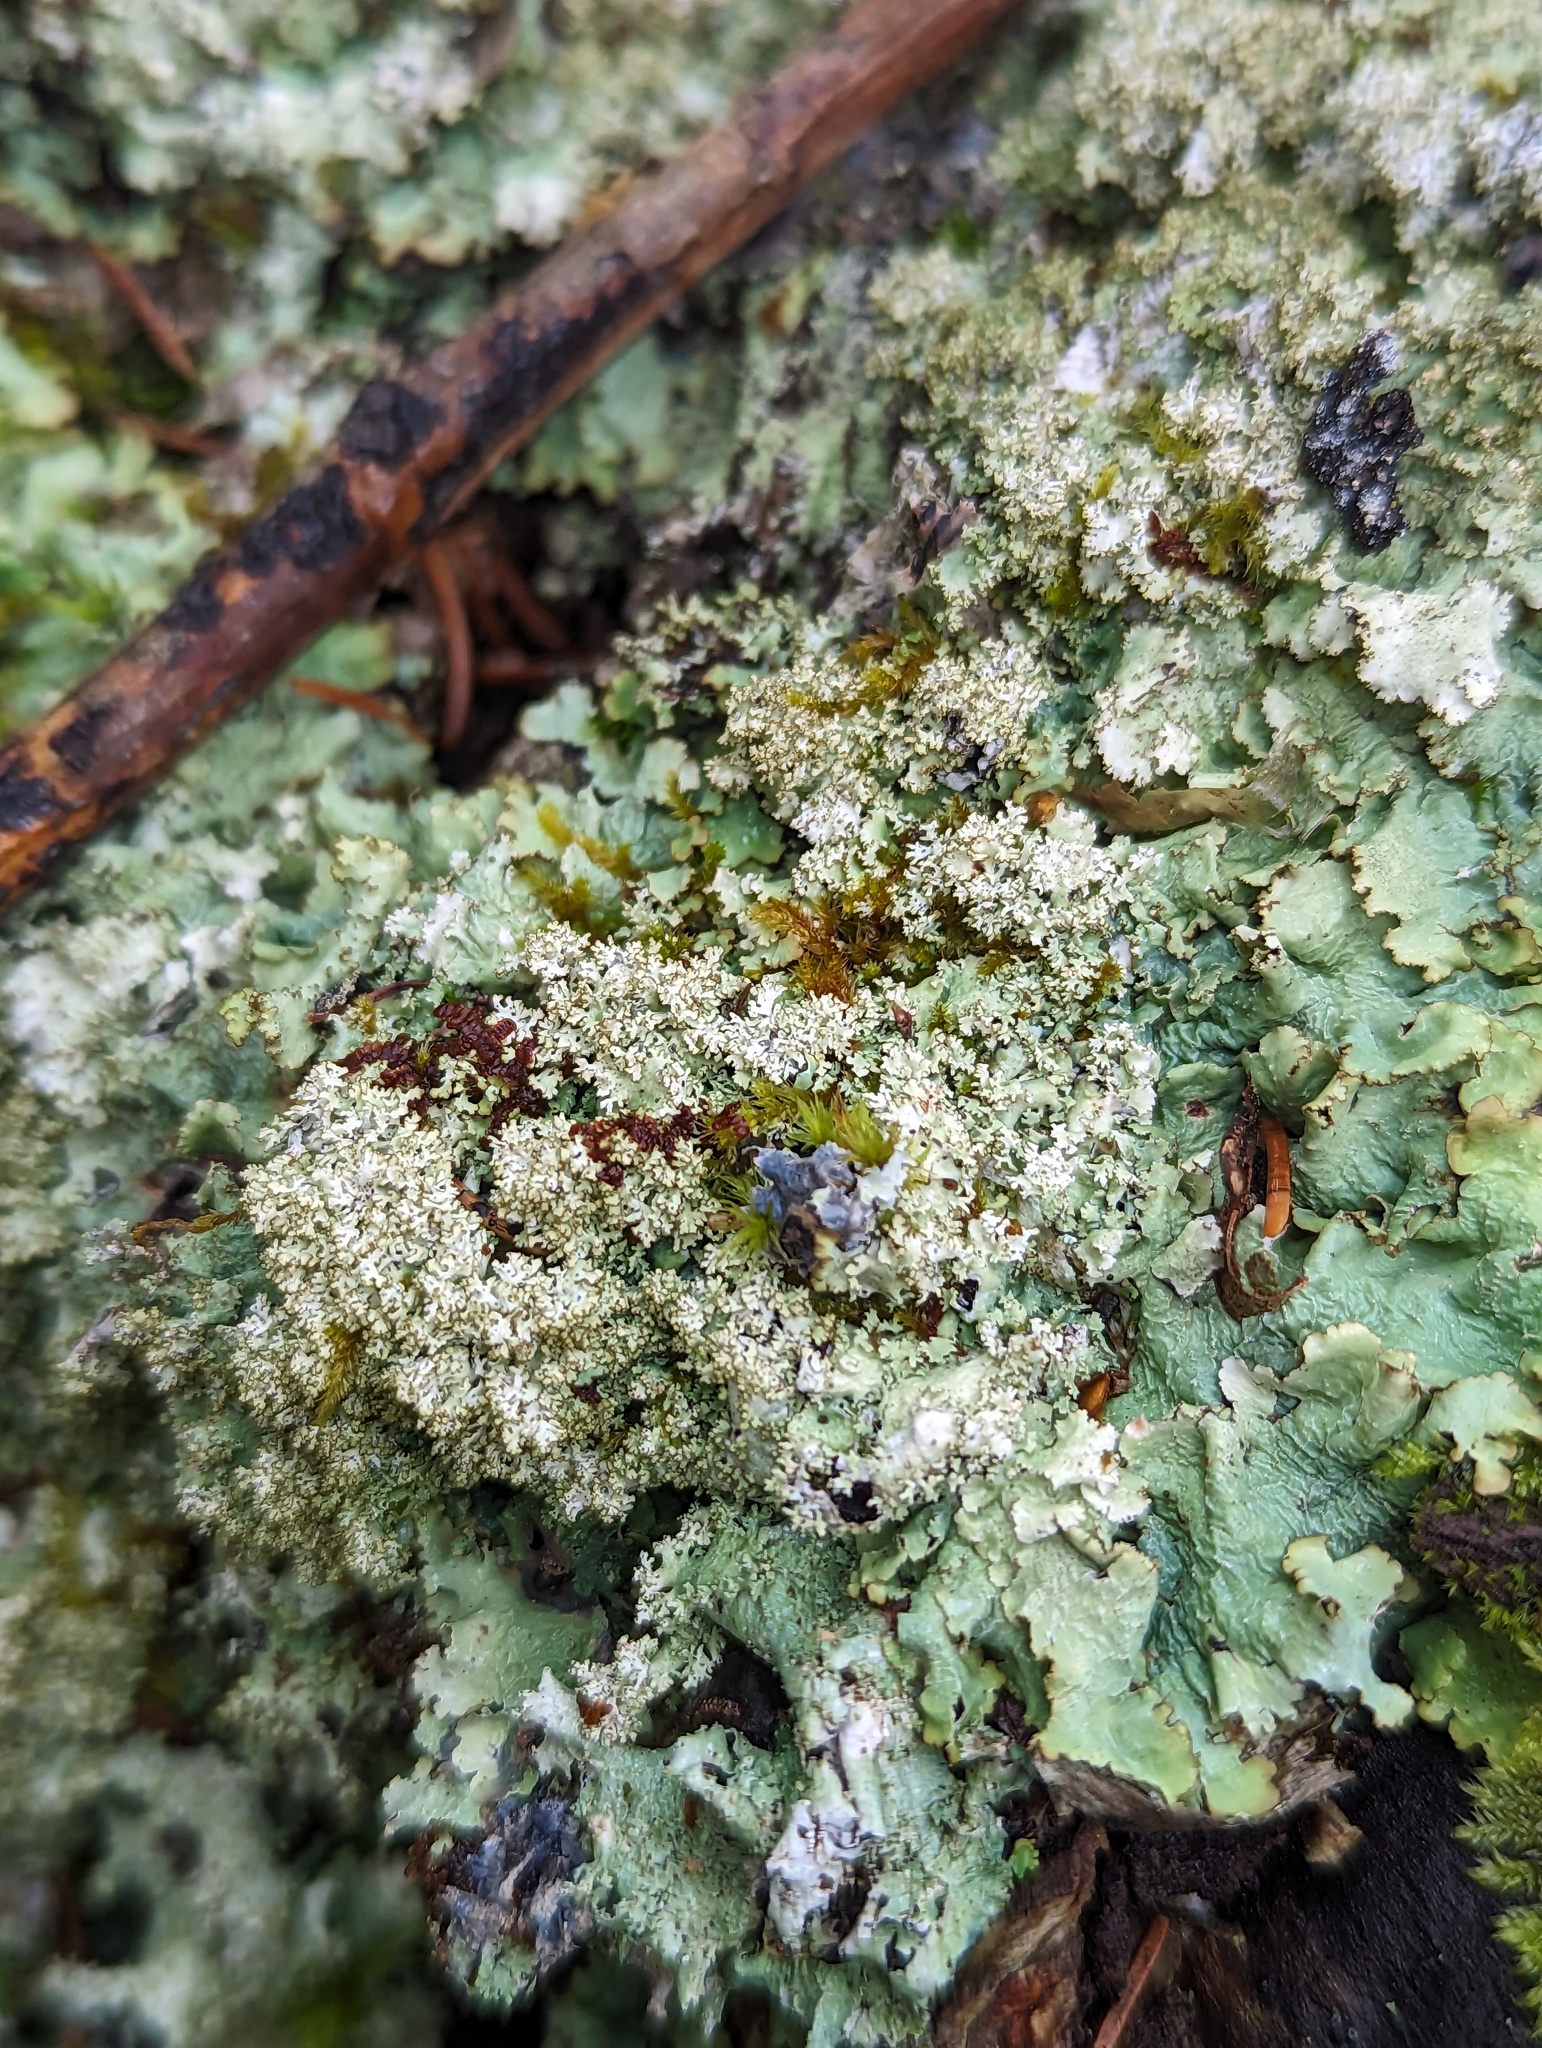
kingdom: Fungi
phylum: Ascomycota
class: Lecanoromycetes
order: Lecanorales
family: Parmeliaceae
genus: Punctelia
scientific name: Punctelia appalachensis
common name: Appalaches appalachian speckled shield lichen
